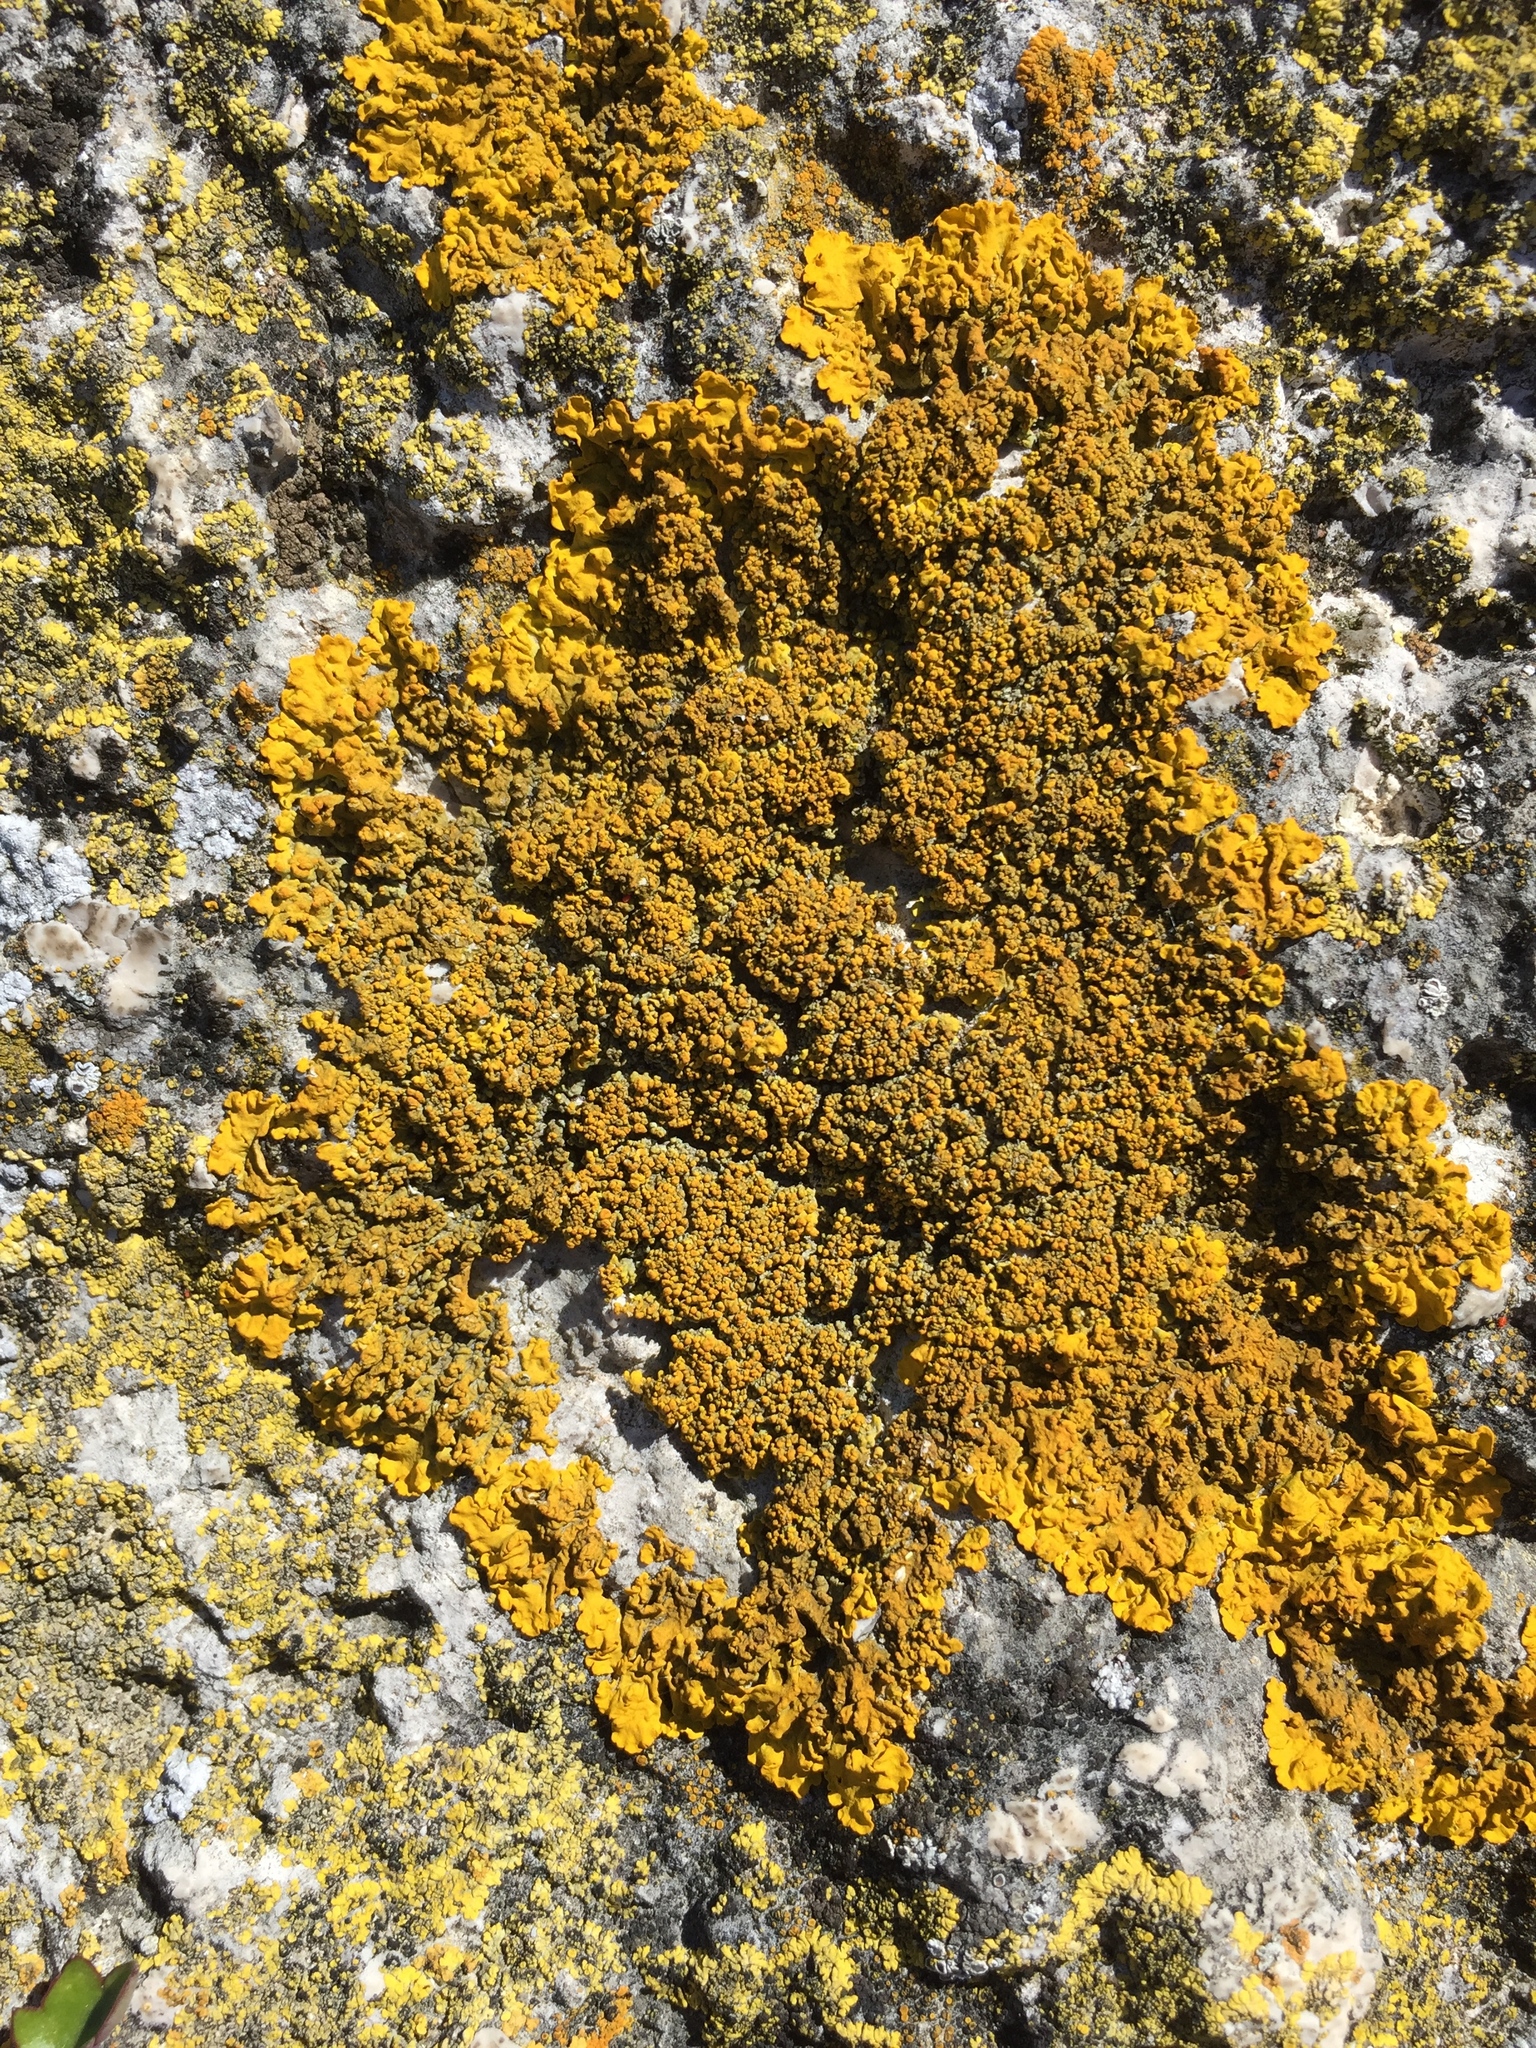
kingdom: Fungi
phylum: Ascomycota
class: Lecanoromycetes
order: Teloschistales
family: Teloschistaceae
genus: Xanthoria
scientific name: Xanthoria calcicola
